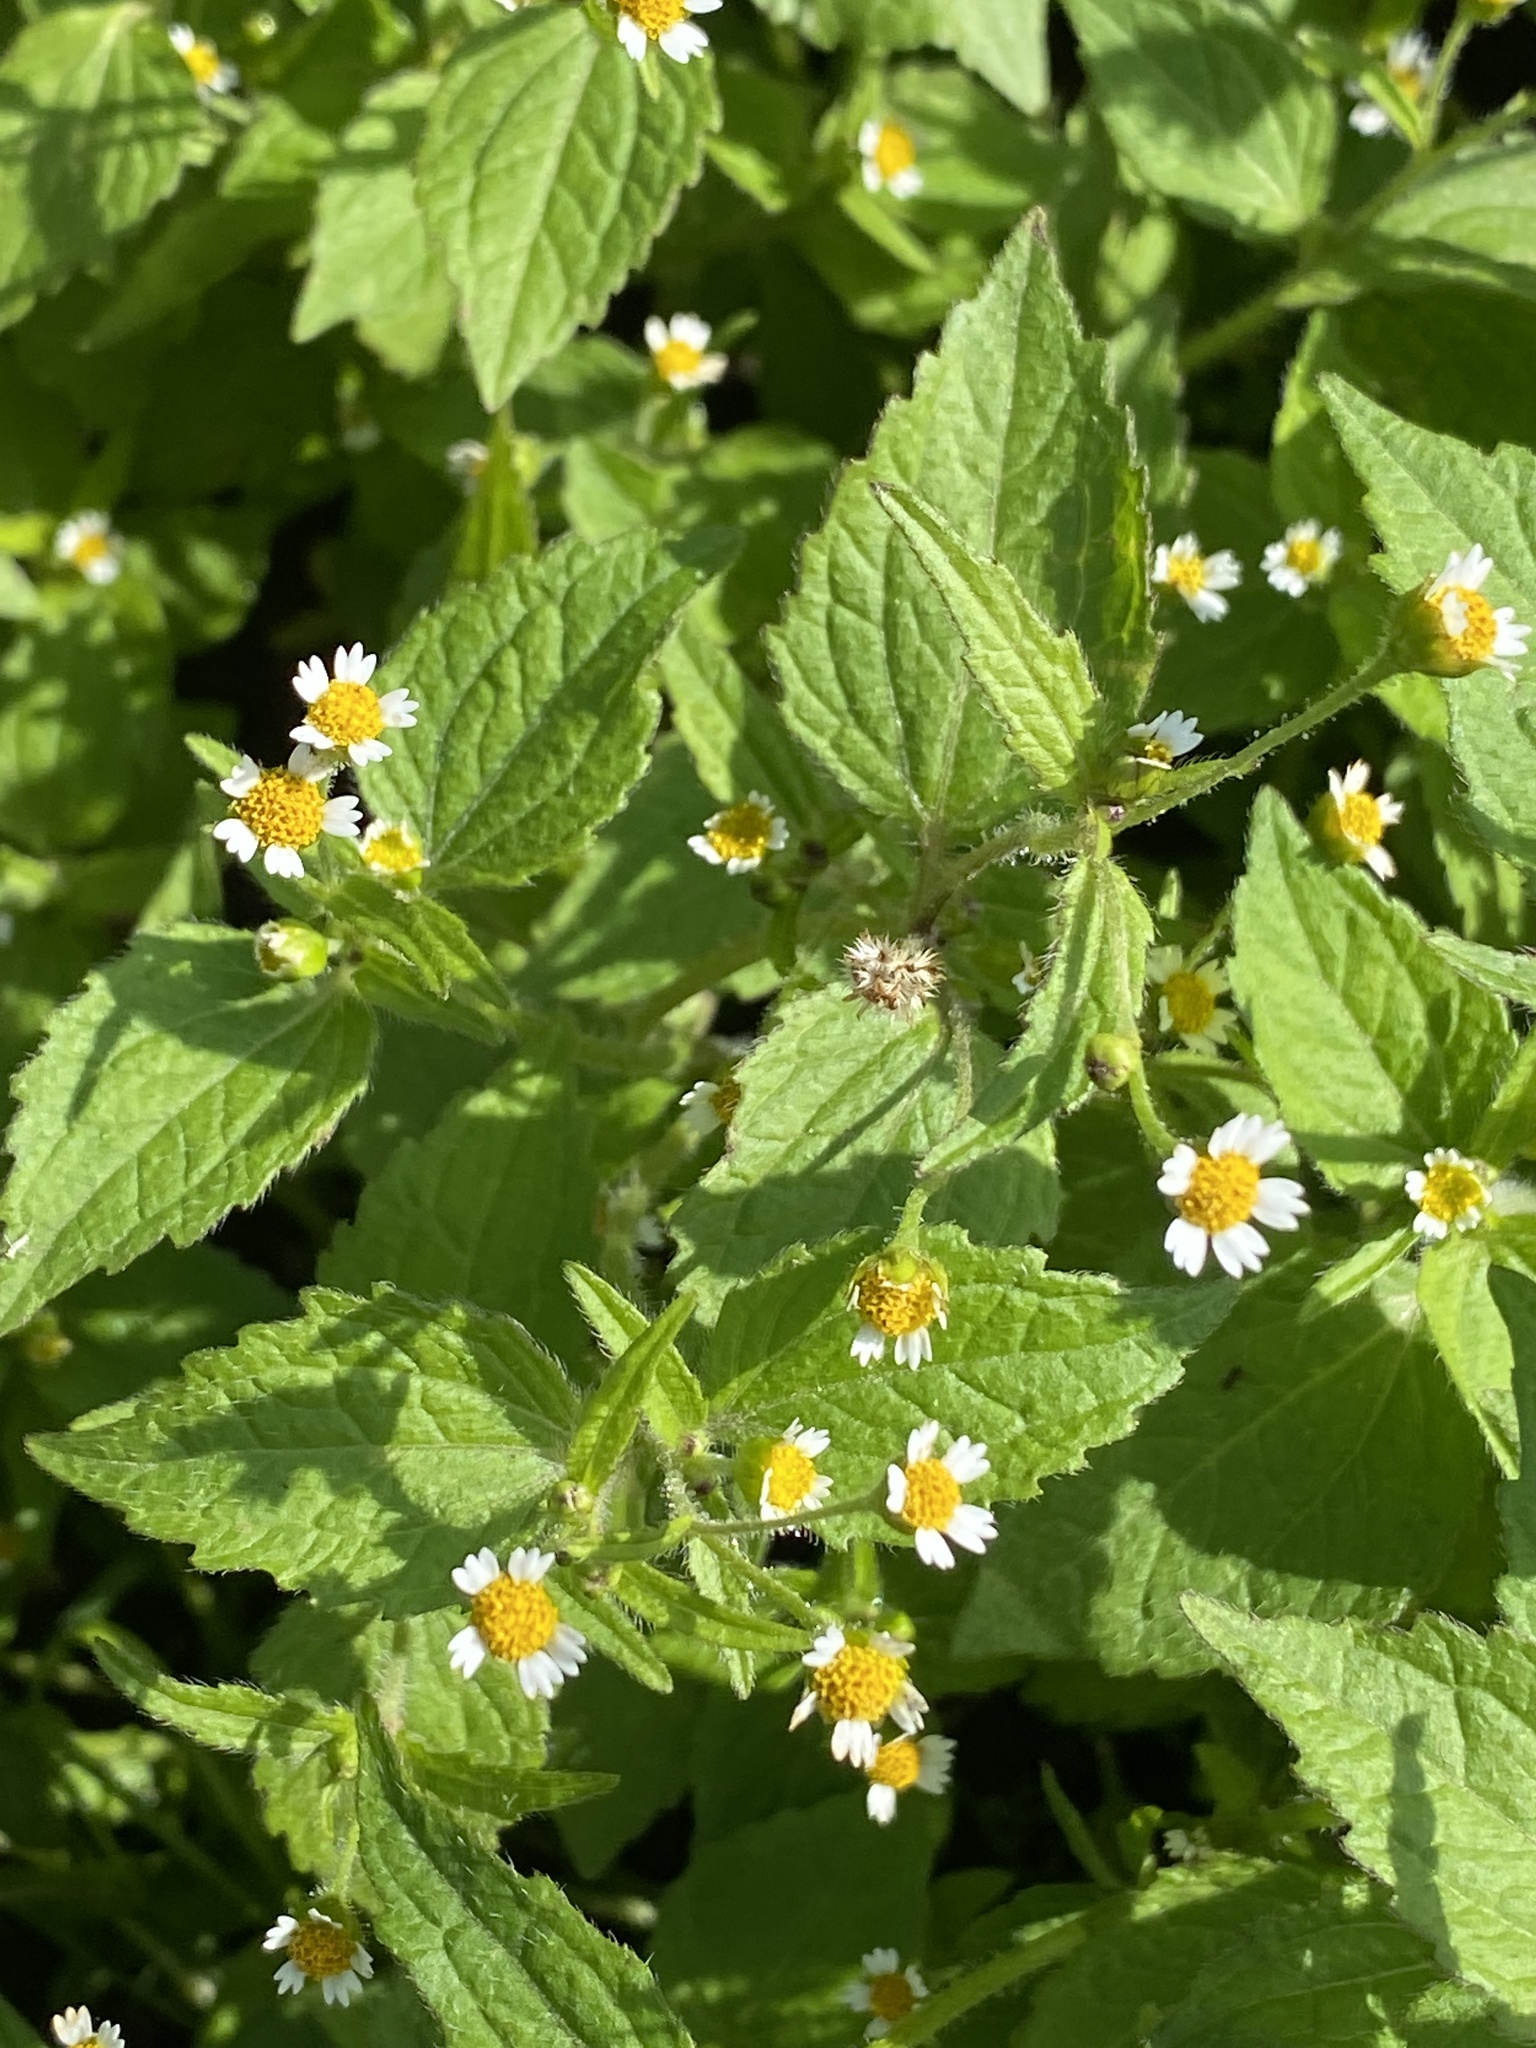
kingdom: Plantae
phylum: Tracheophyta
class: Magnoliopsida
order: Asterales
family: Asteraceae
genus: Galinsoga
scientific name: Galinsoga quadriradiata
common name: Shaggy soldier
